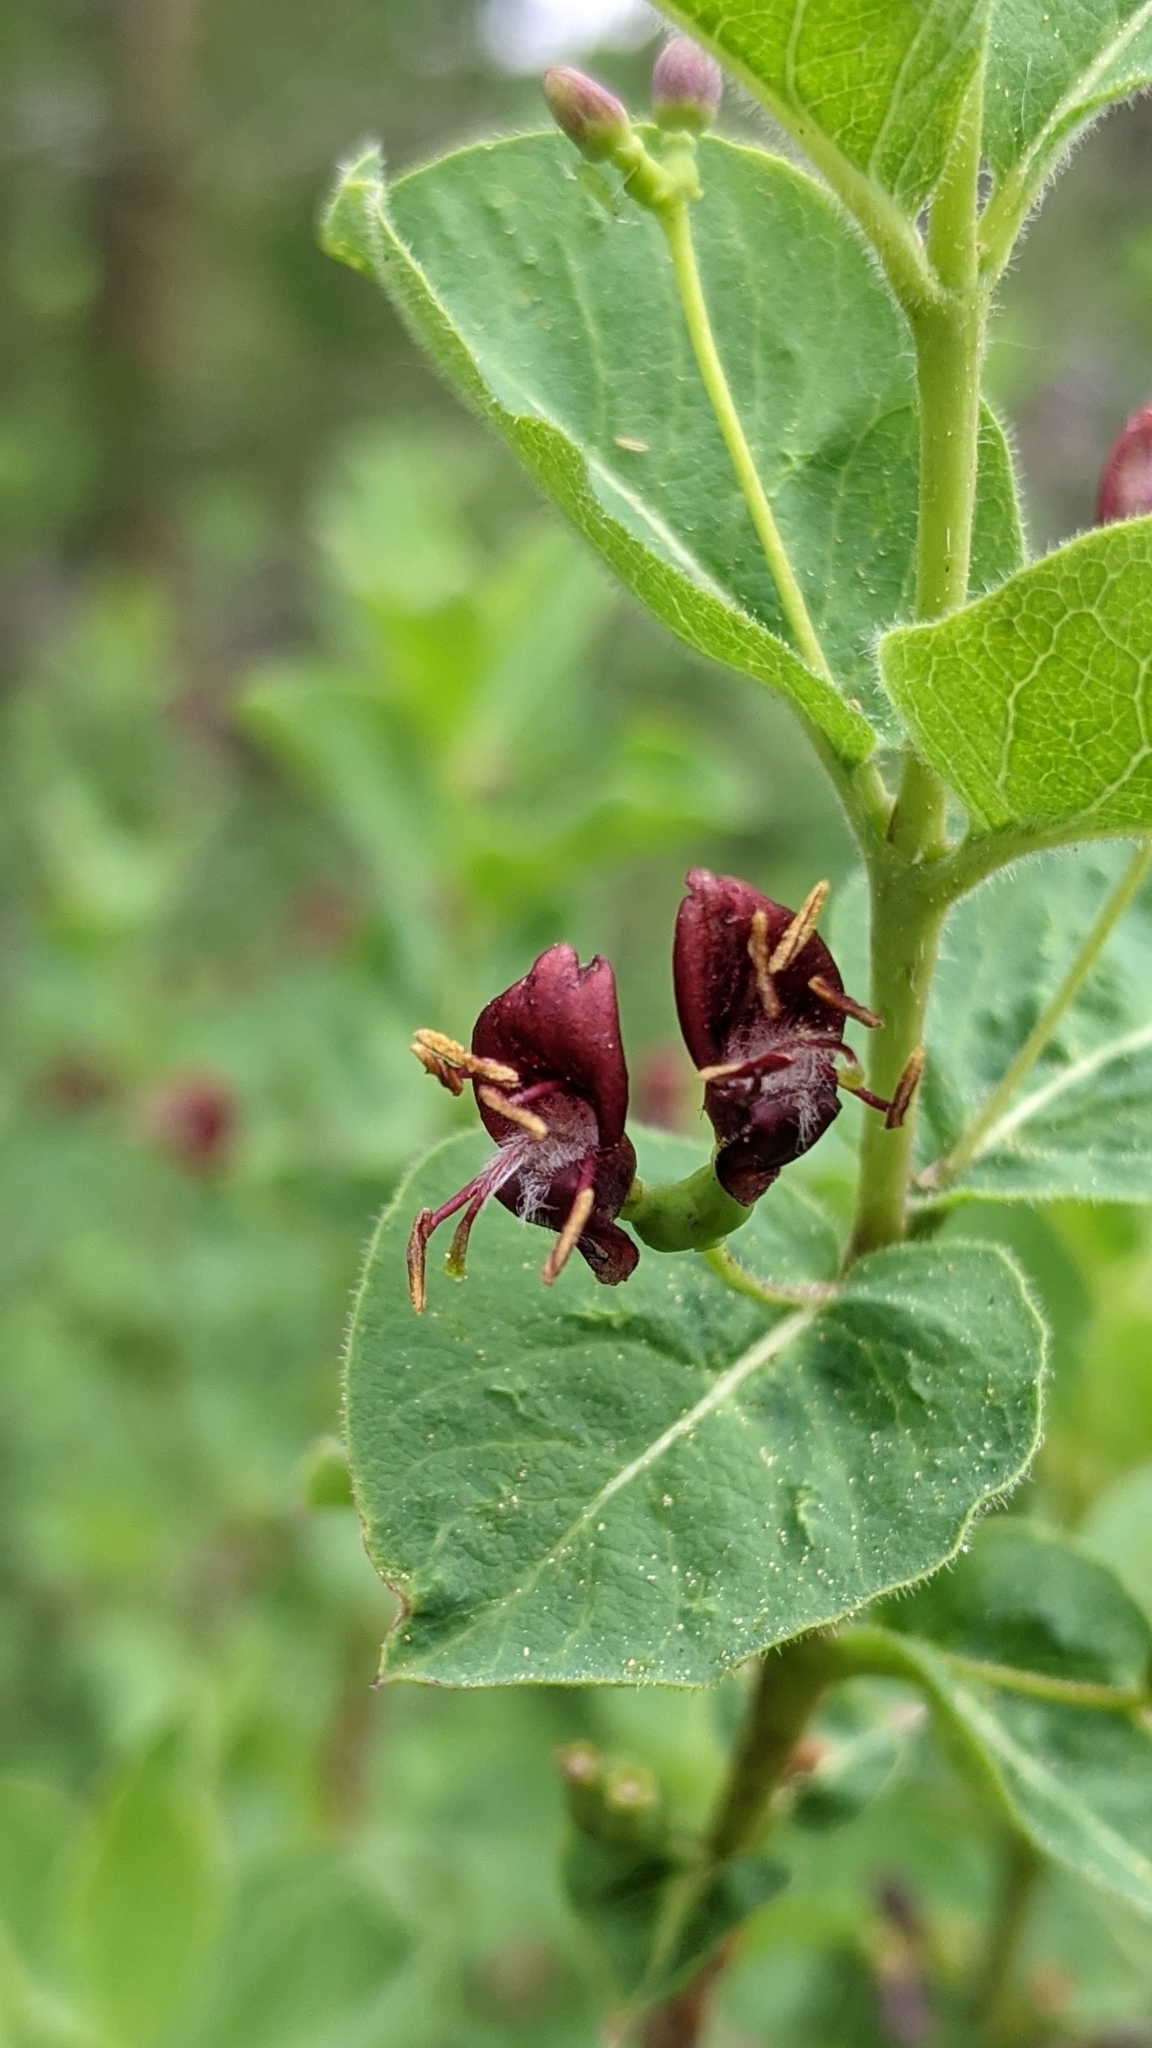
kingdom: Plantae
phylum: Tracheophyta
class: Magnoliopsida
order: Dipsacales
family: Caprifoliaceae
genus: Lonicera
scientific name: Lonicera conjugialis
